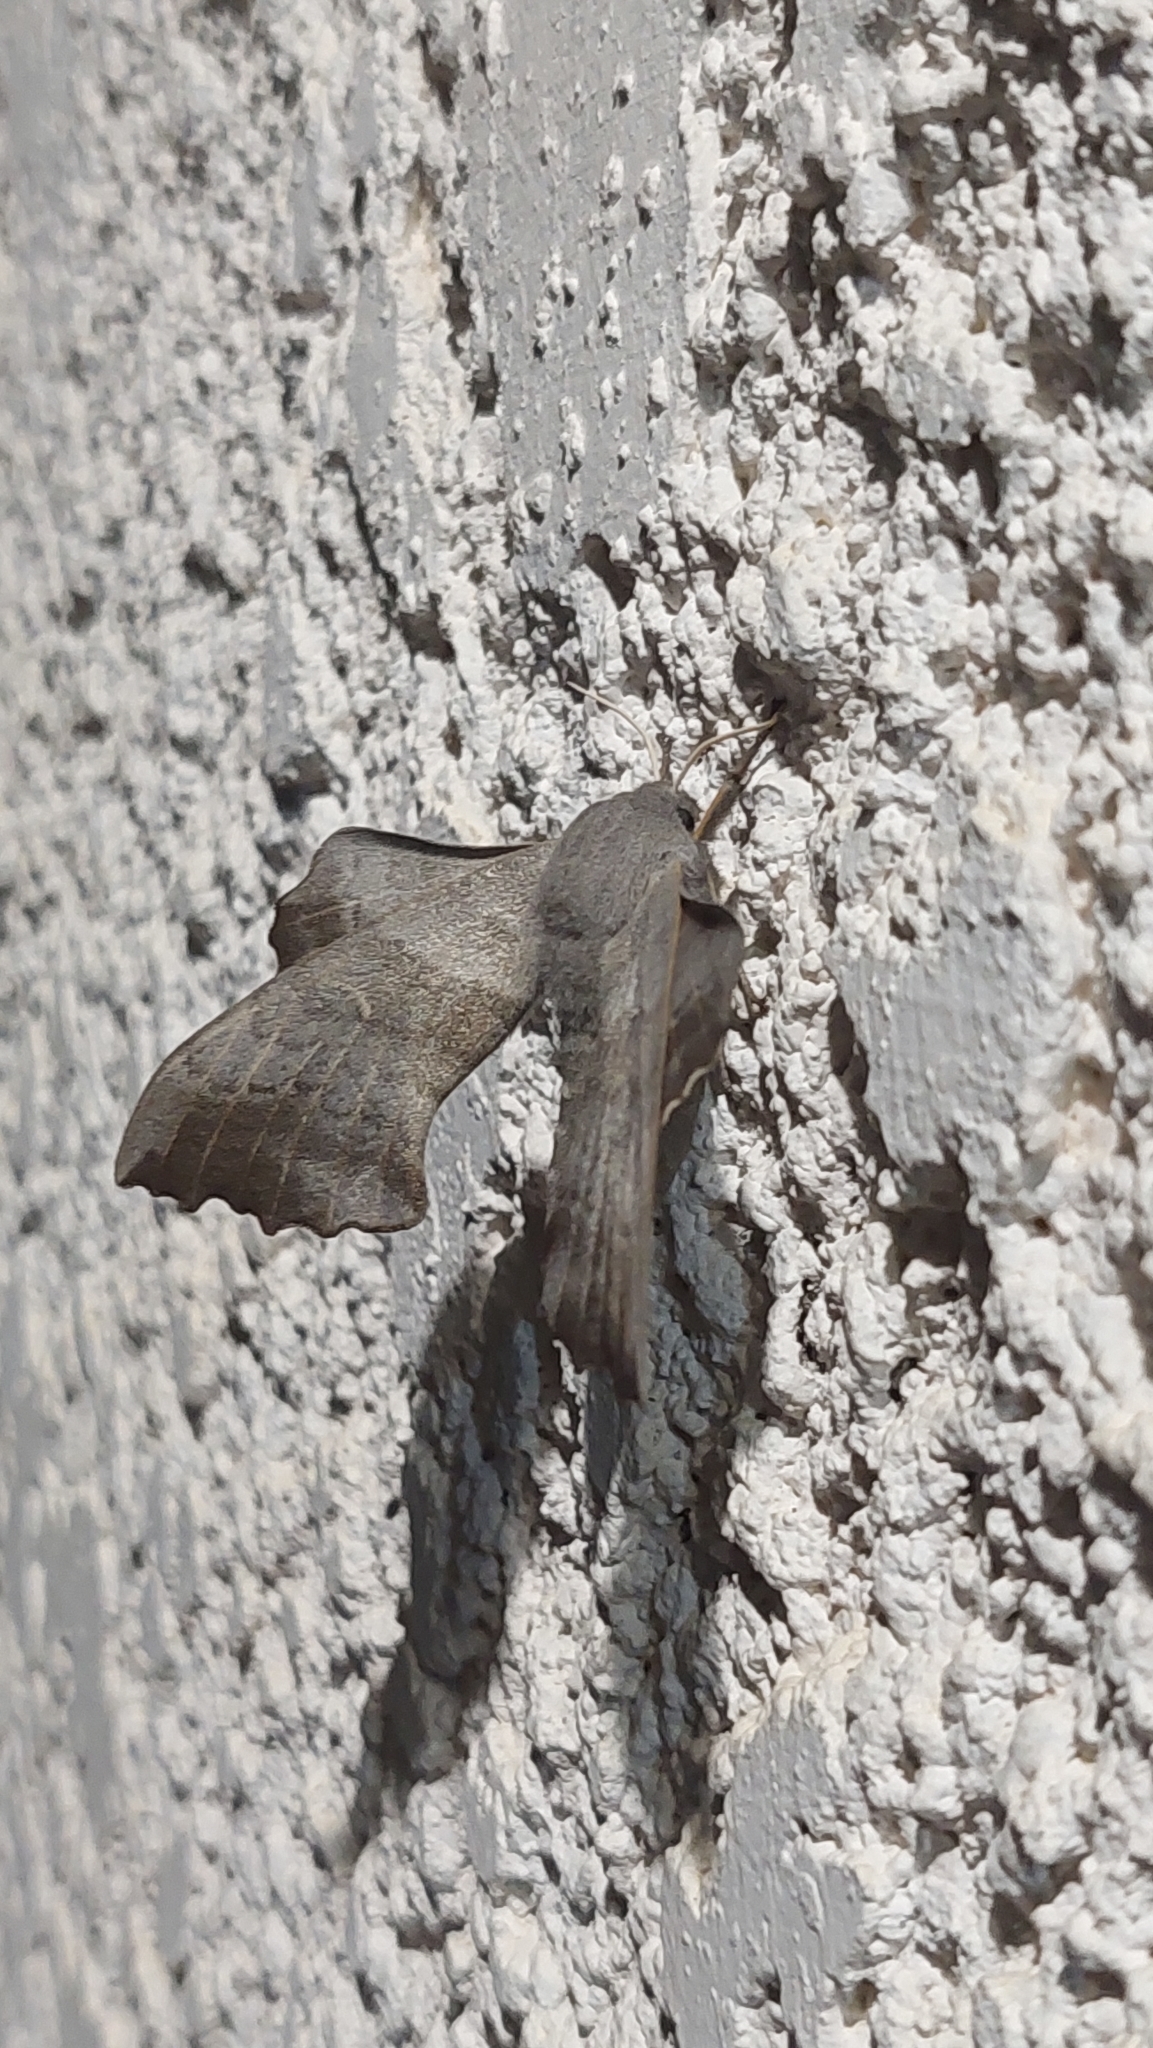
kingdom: Animalia
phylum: Arthropoda
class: Insecta
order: Lepidoptera
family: Sphingidae
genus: Laothoe
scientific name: Laothoe populi
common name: Poplar hawk-moth
